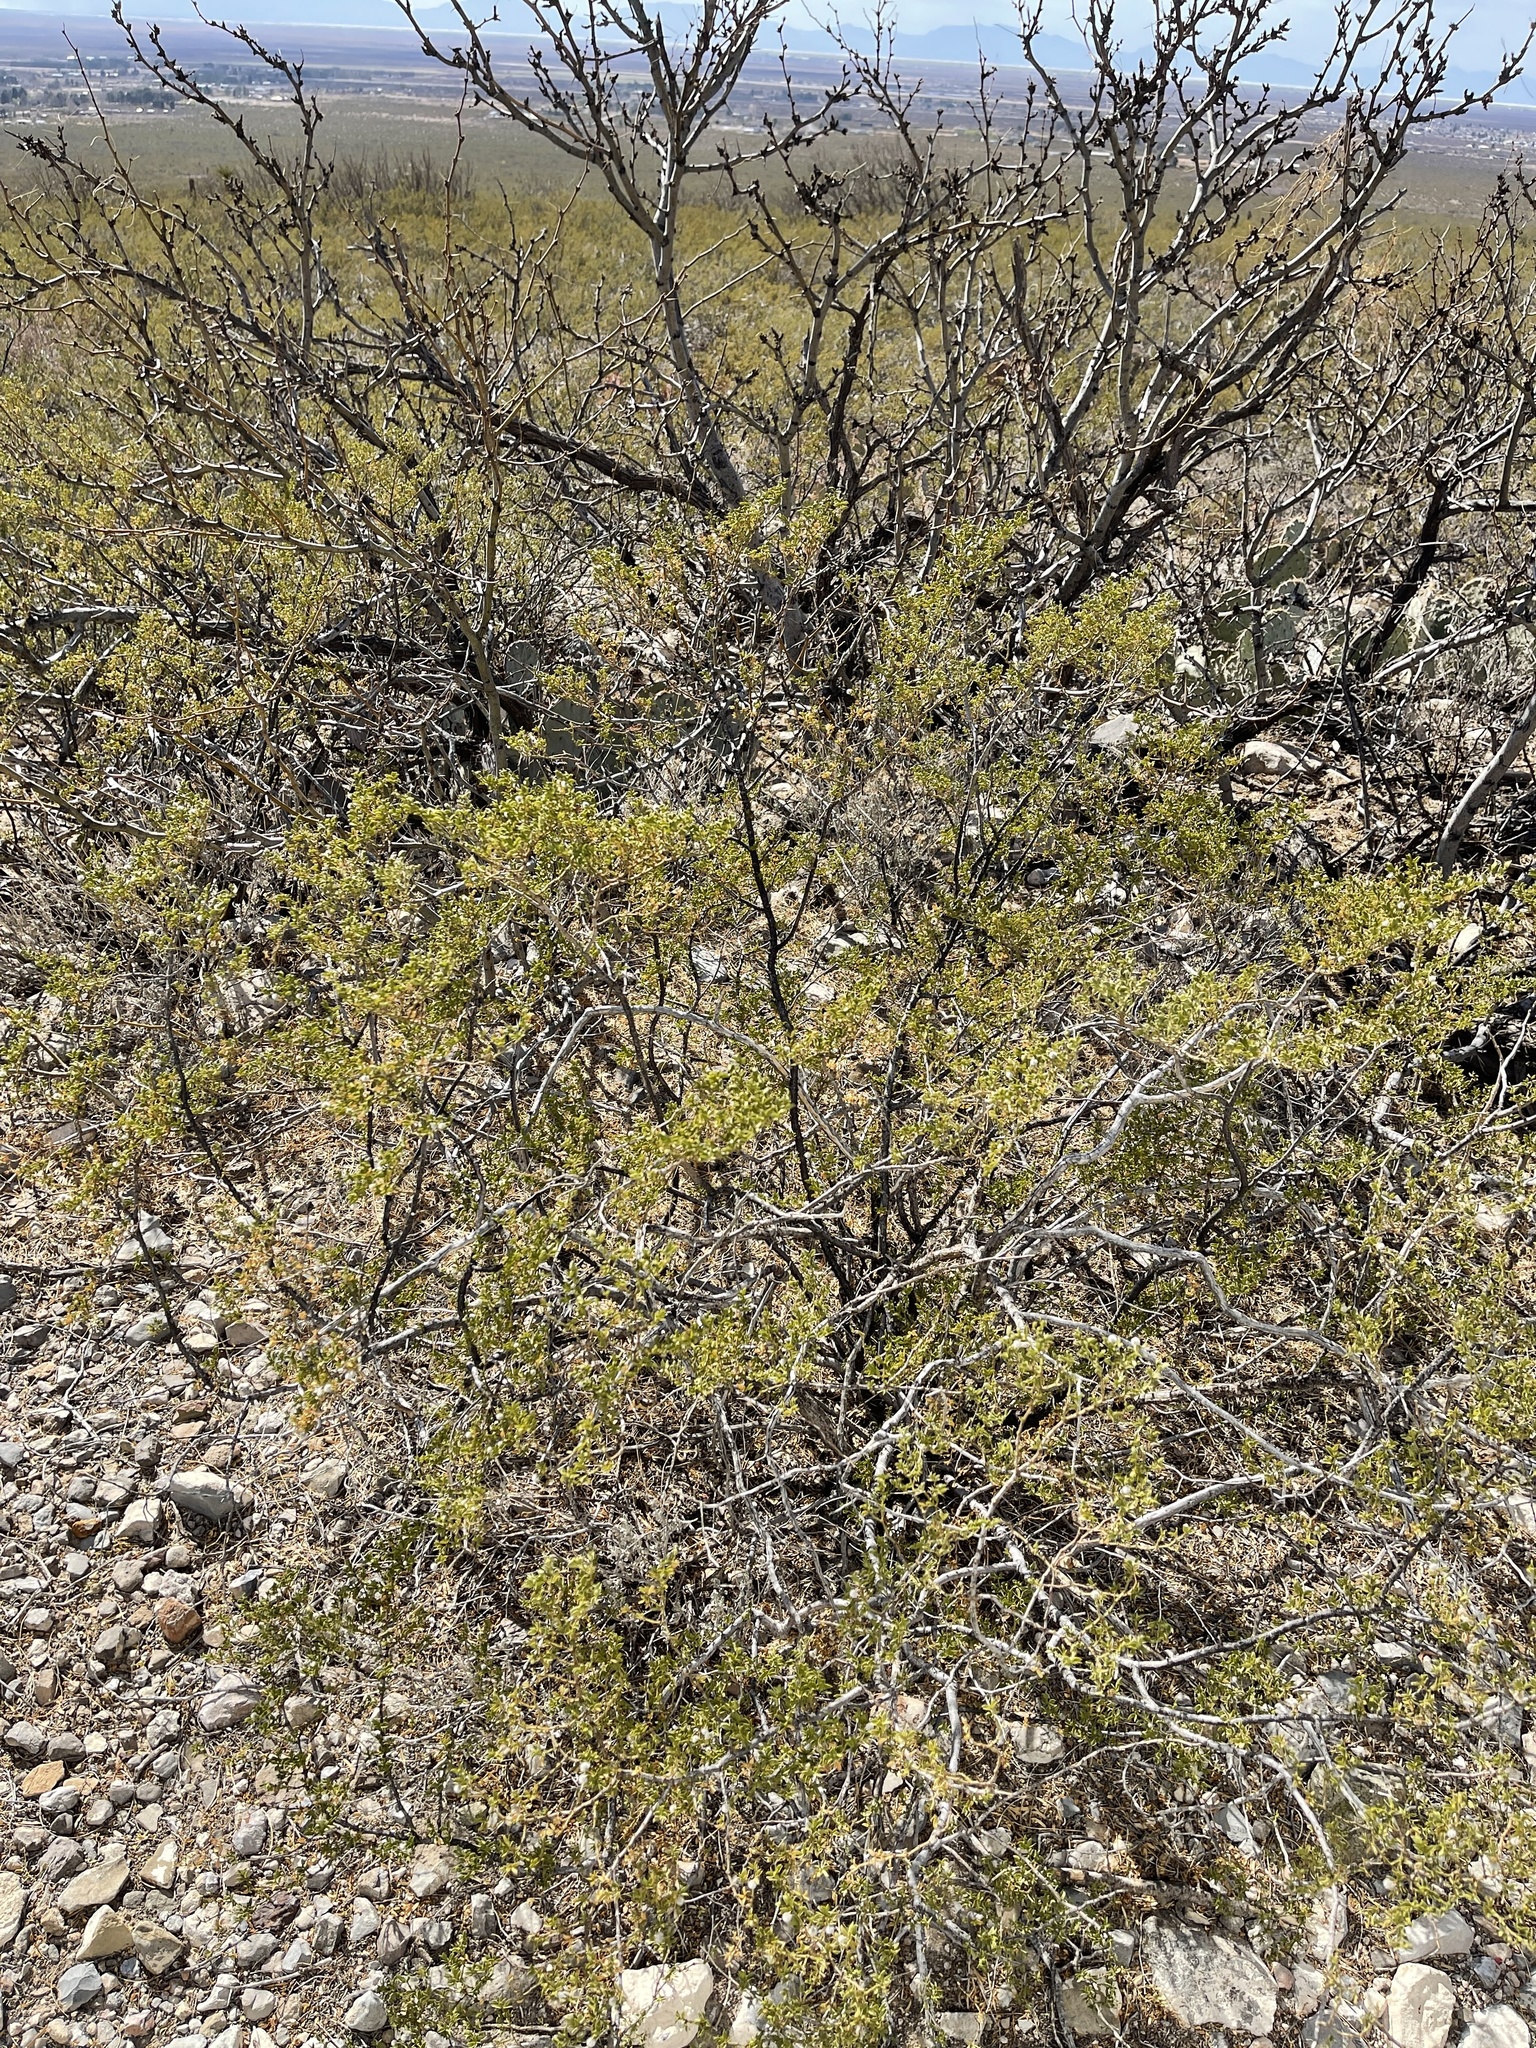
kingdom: Plantae
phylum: Tracheophyta
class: Magnoliopsida
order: Zygophyllales
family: Zygophyllaceae
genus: Larrea
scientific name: Larrea tridentata
